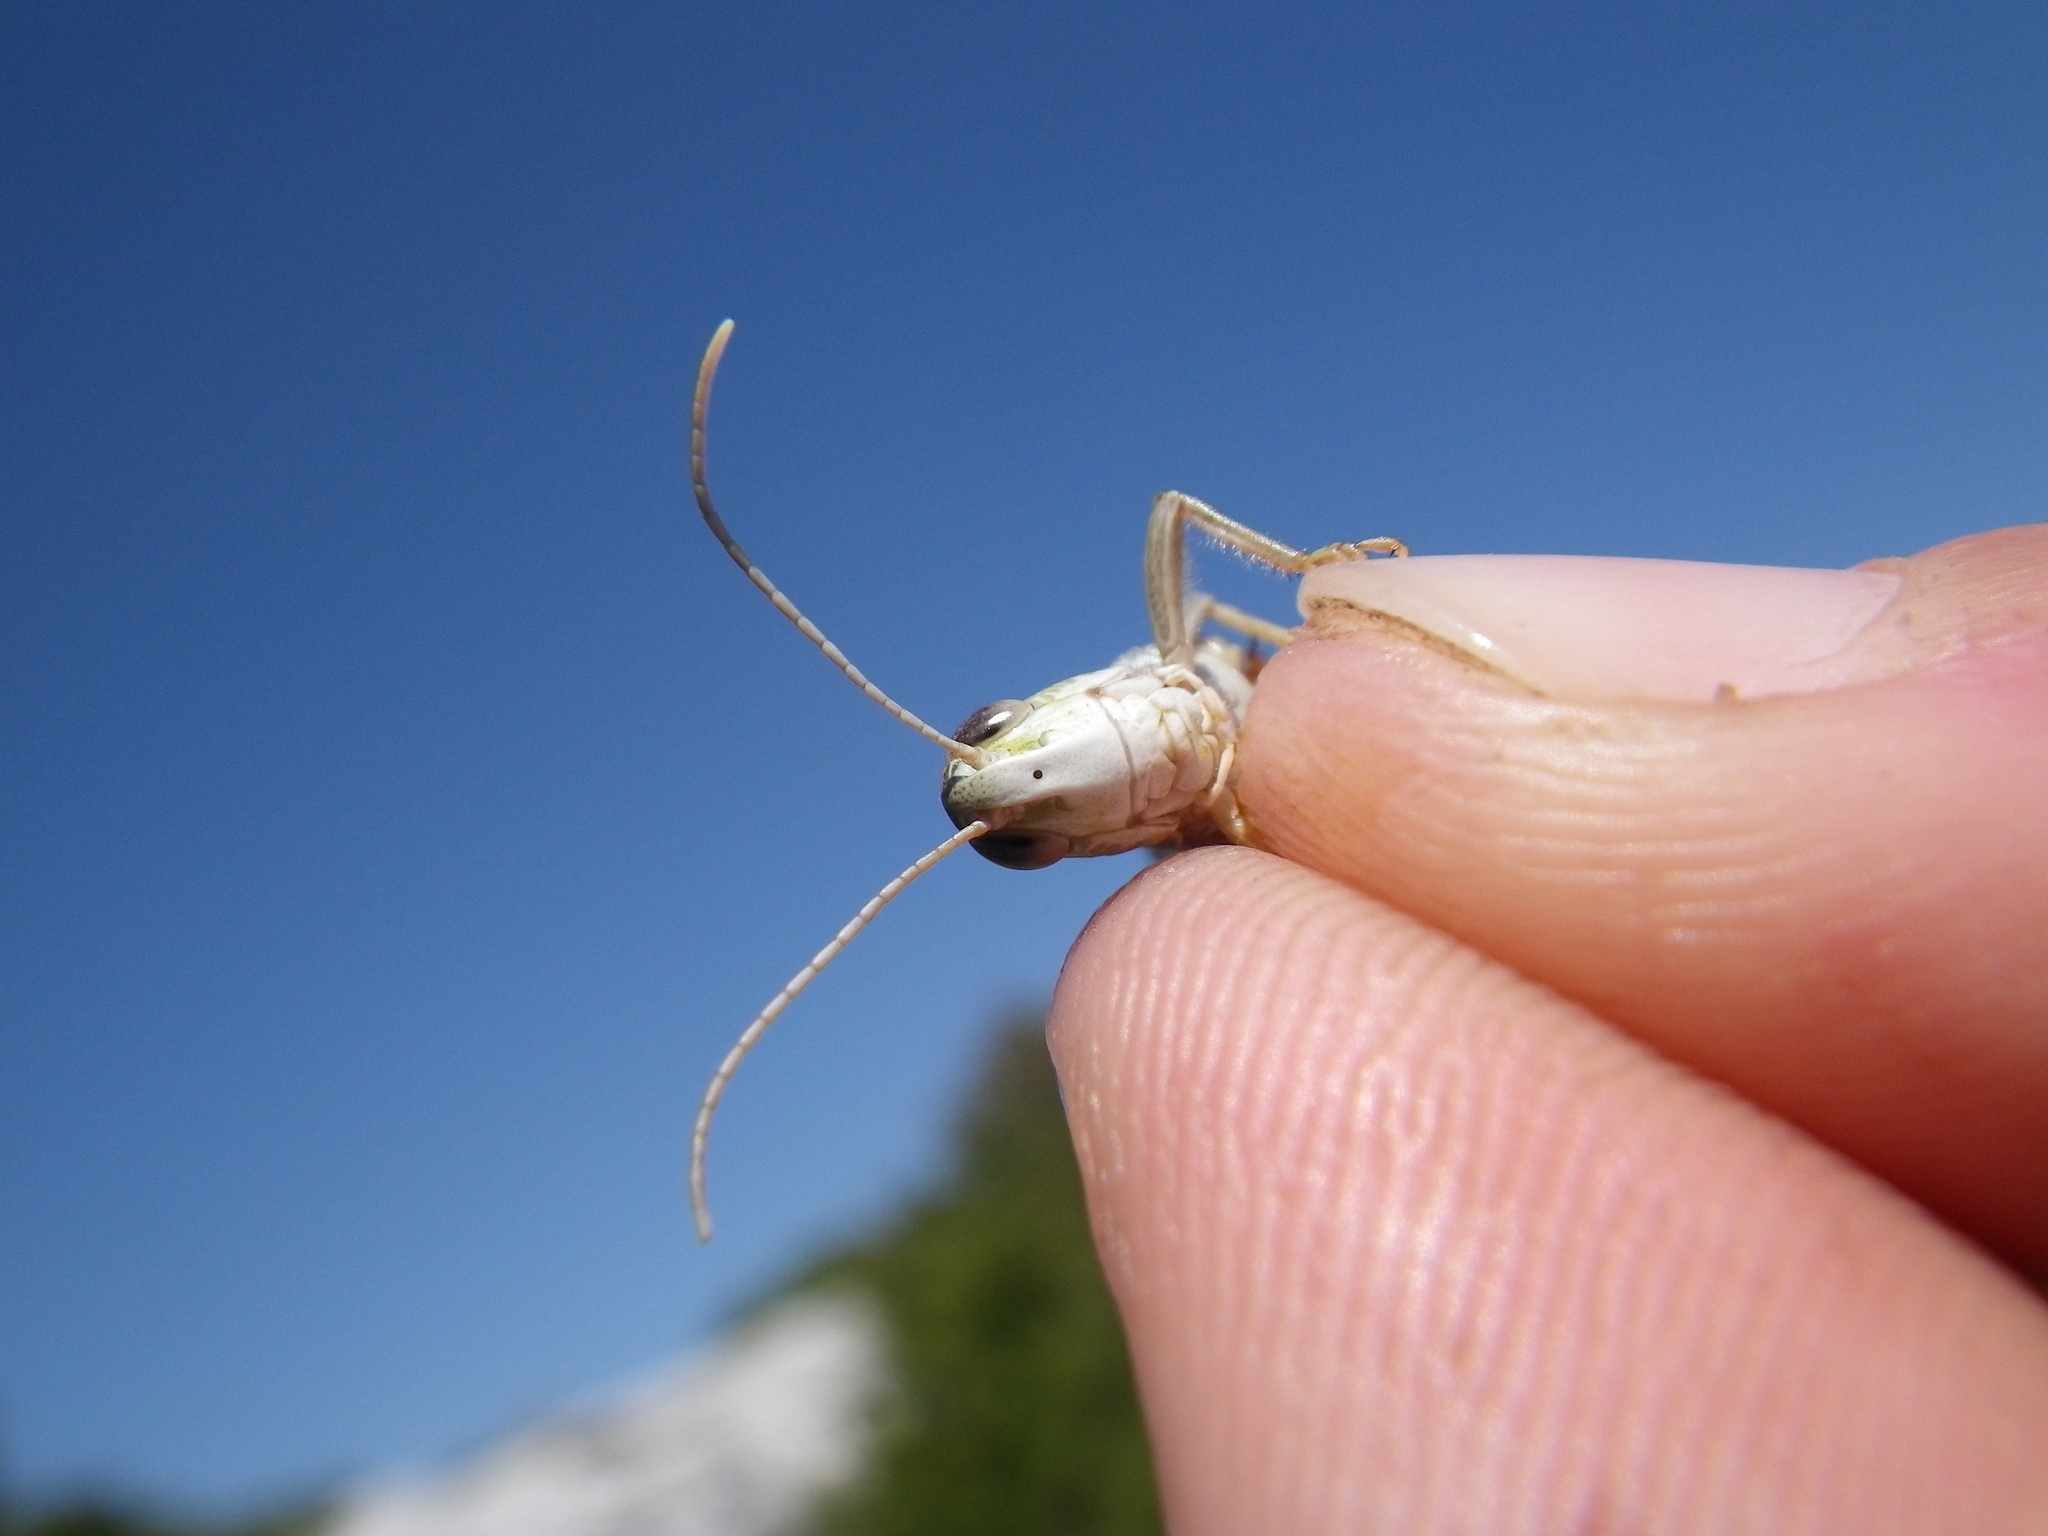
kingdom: Animalia
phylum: Arthropoda
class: Insecta
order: Orthoptera
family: Acrididae
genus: Stenobothrus
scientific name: Stenobothrus fischeri
